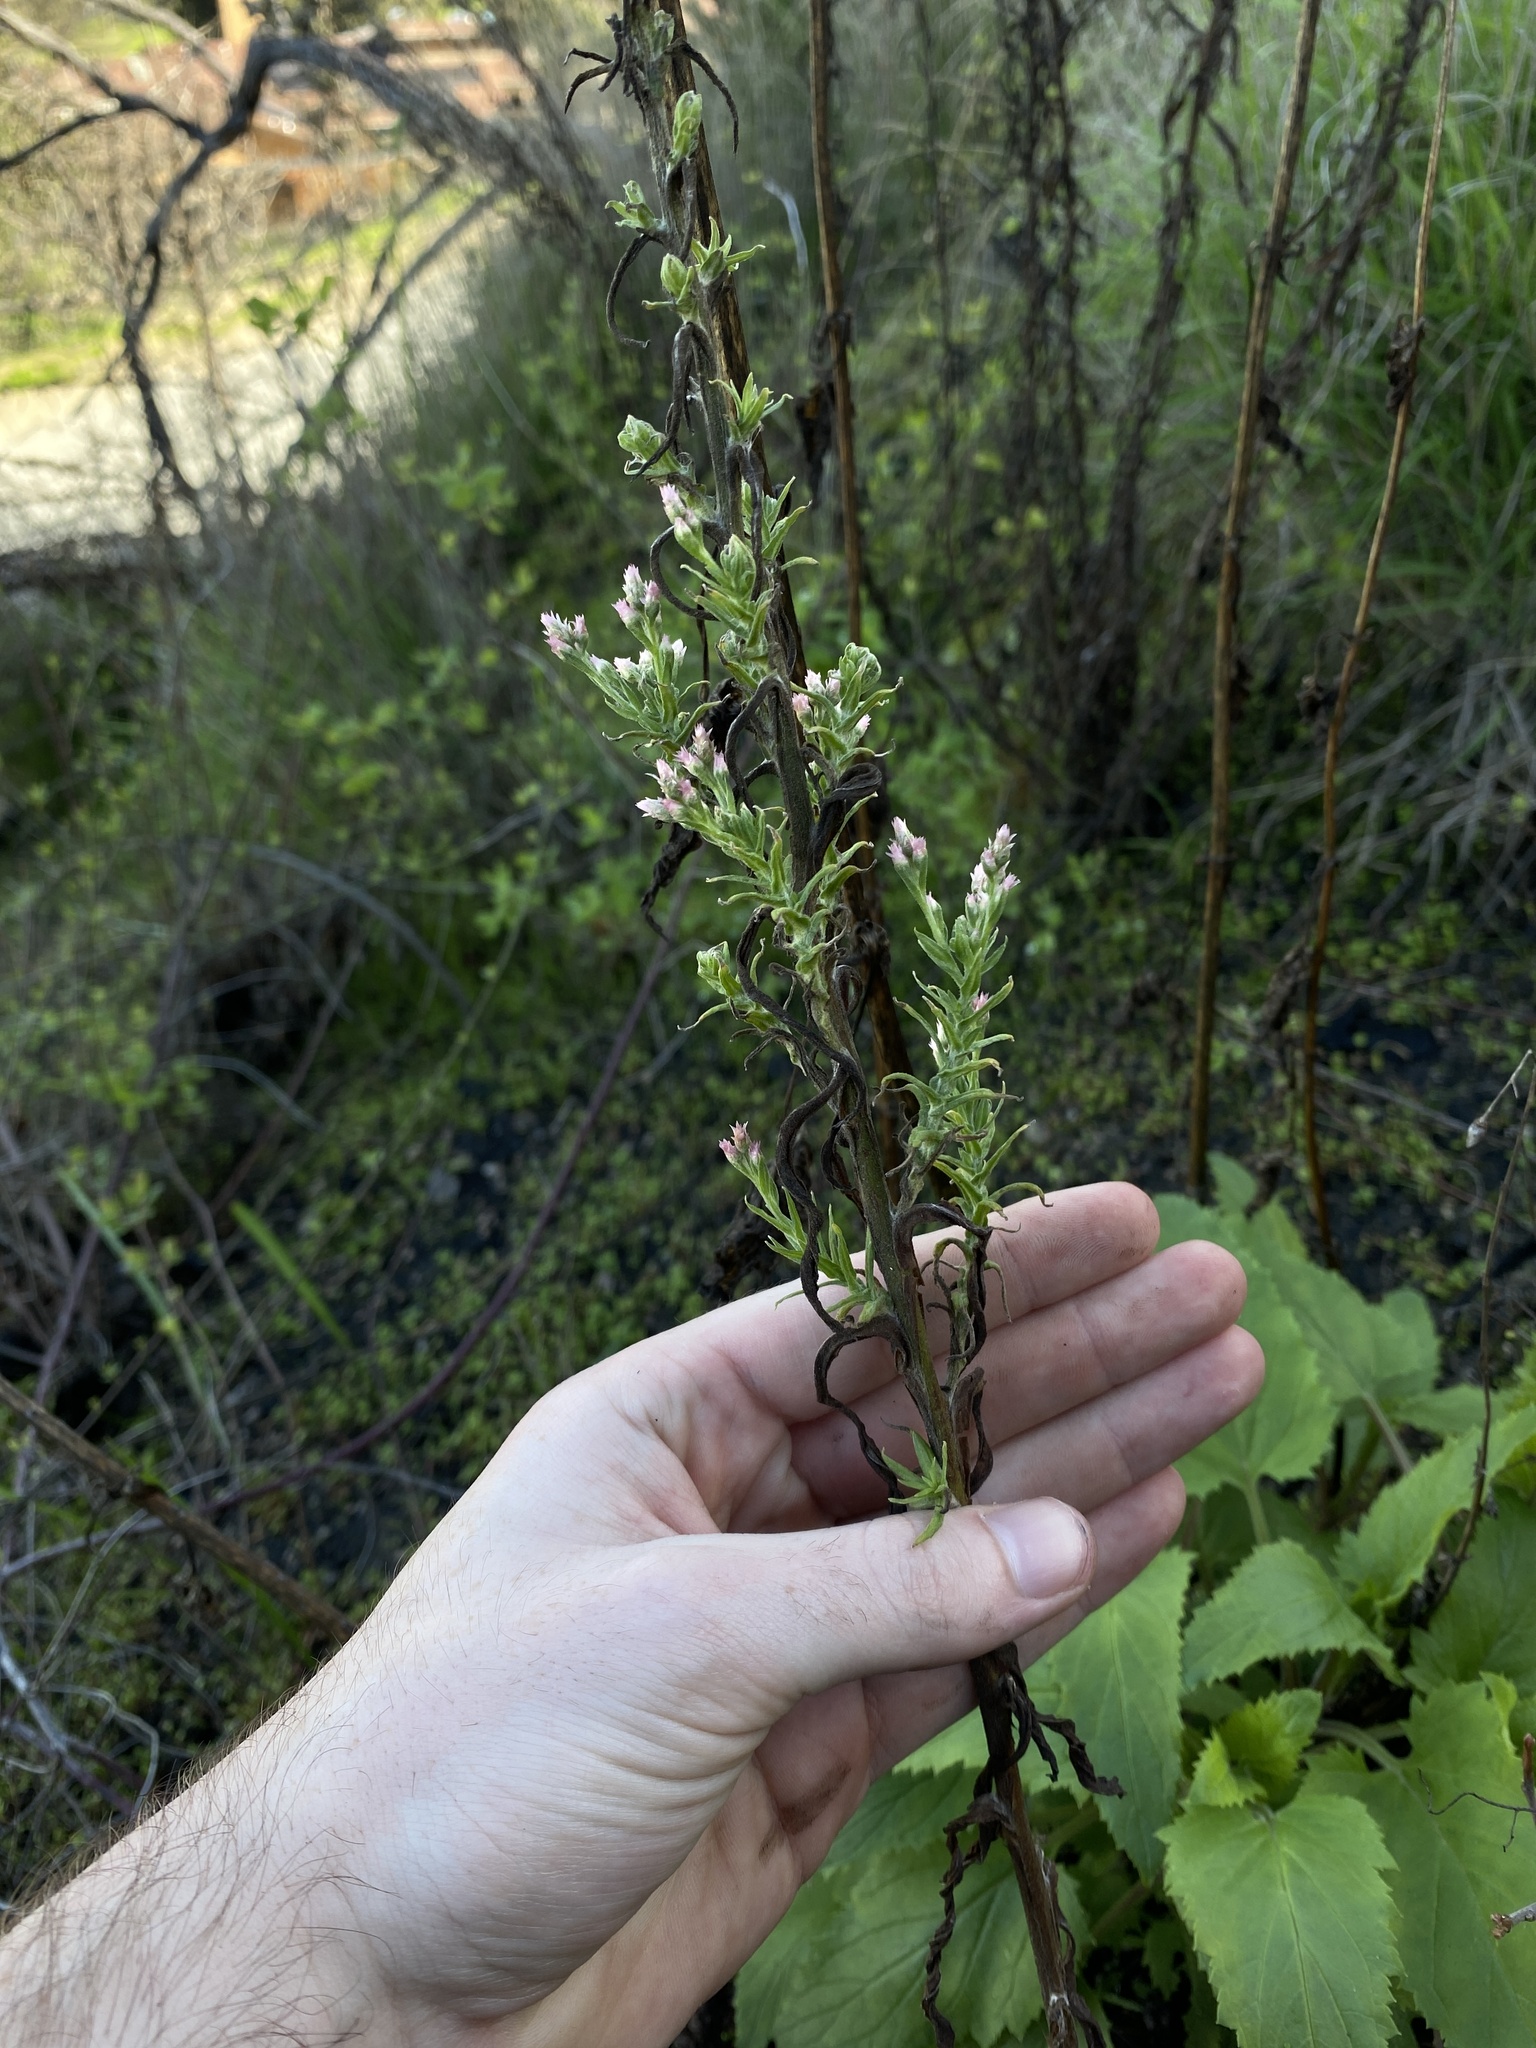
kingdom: Plantae
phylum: Tracheophyta
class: Magnoliopsida
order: Asterales
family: Asteraceae
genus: Pseudognaphalium
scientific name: Pseudognaphalium ramosissimum
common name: Pink rabbit-tobacco
